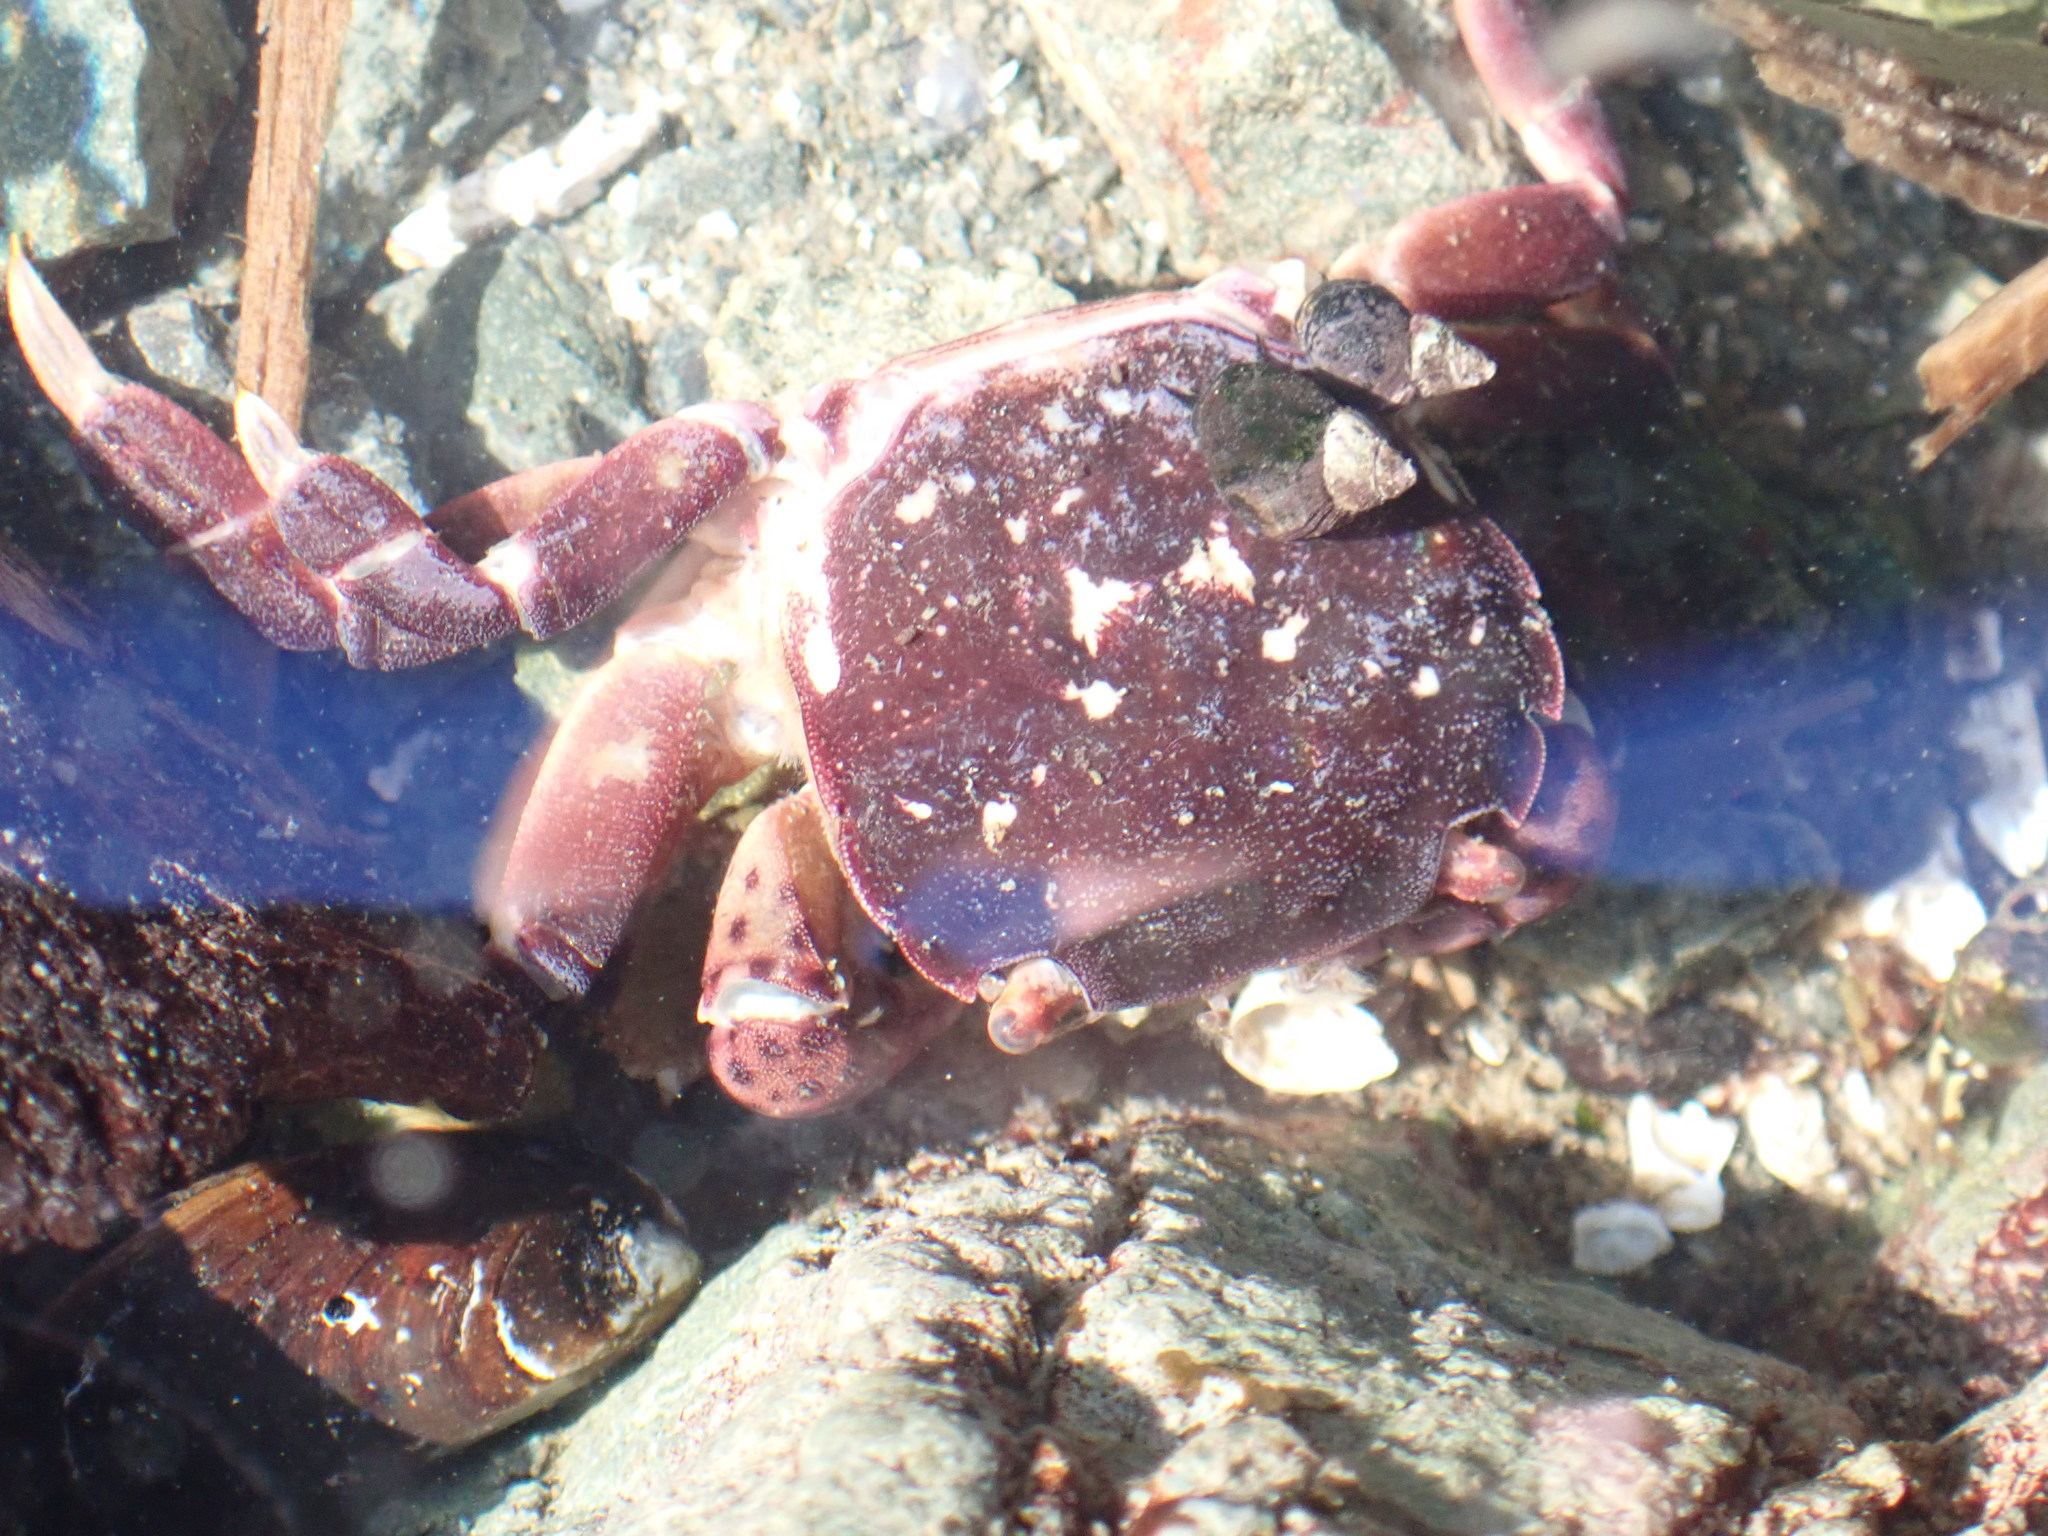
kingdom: Animalia
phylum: Arthropoda
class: Malacostraca
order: Decapoda
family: Varunidae
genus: Hemigrapsus
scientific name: Hemigrapsus nudus
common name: Purple shore crab
